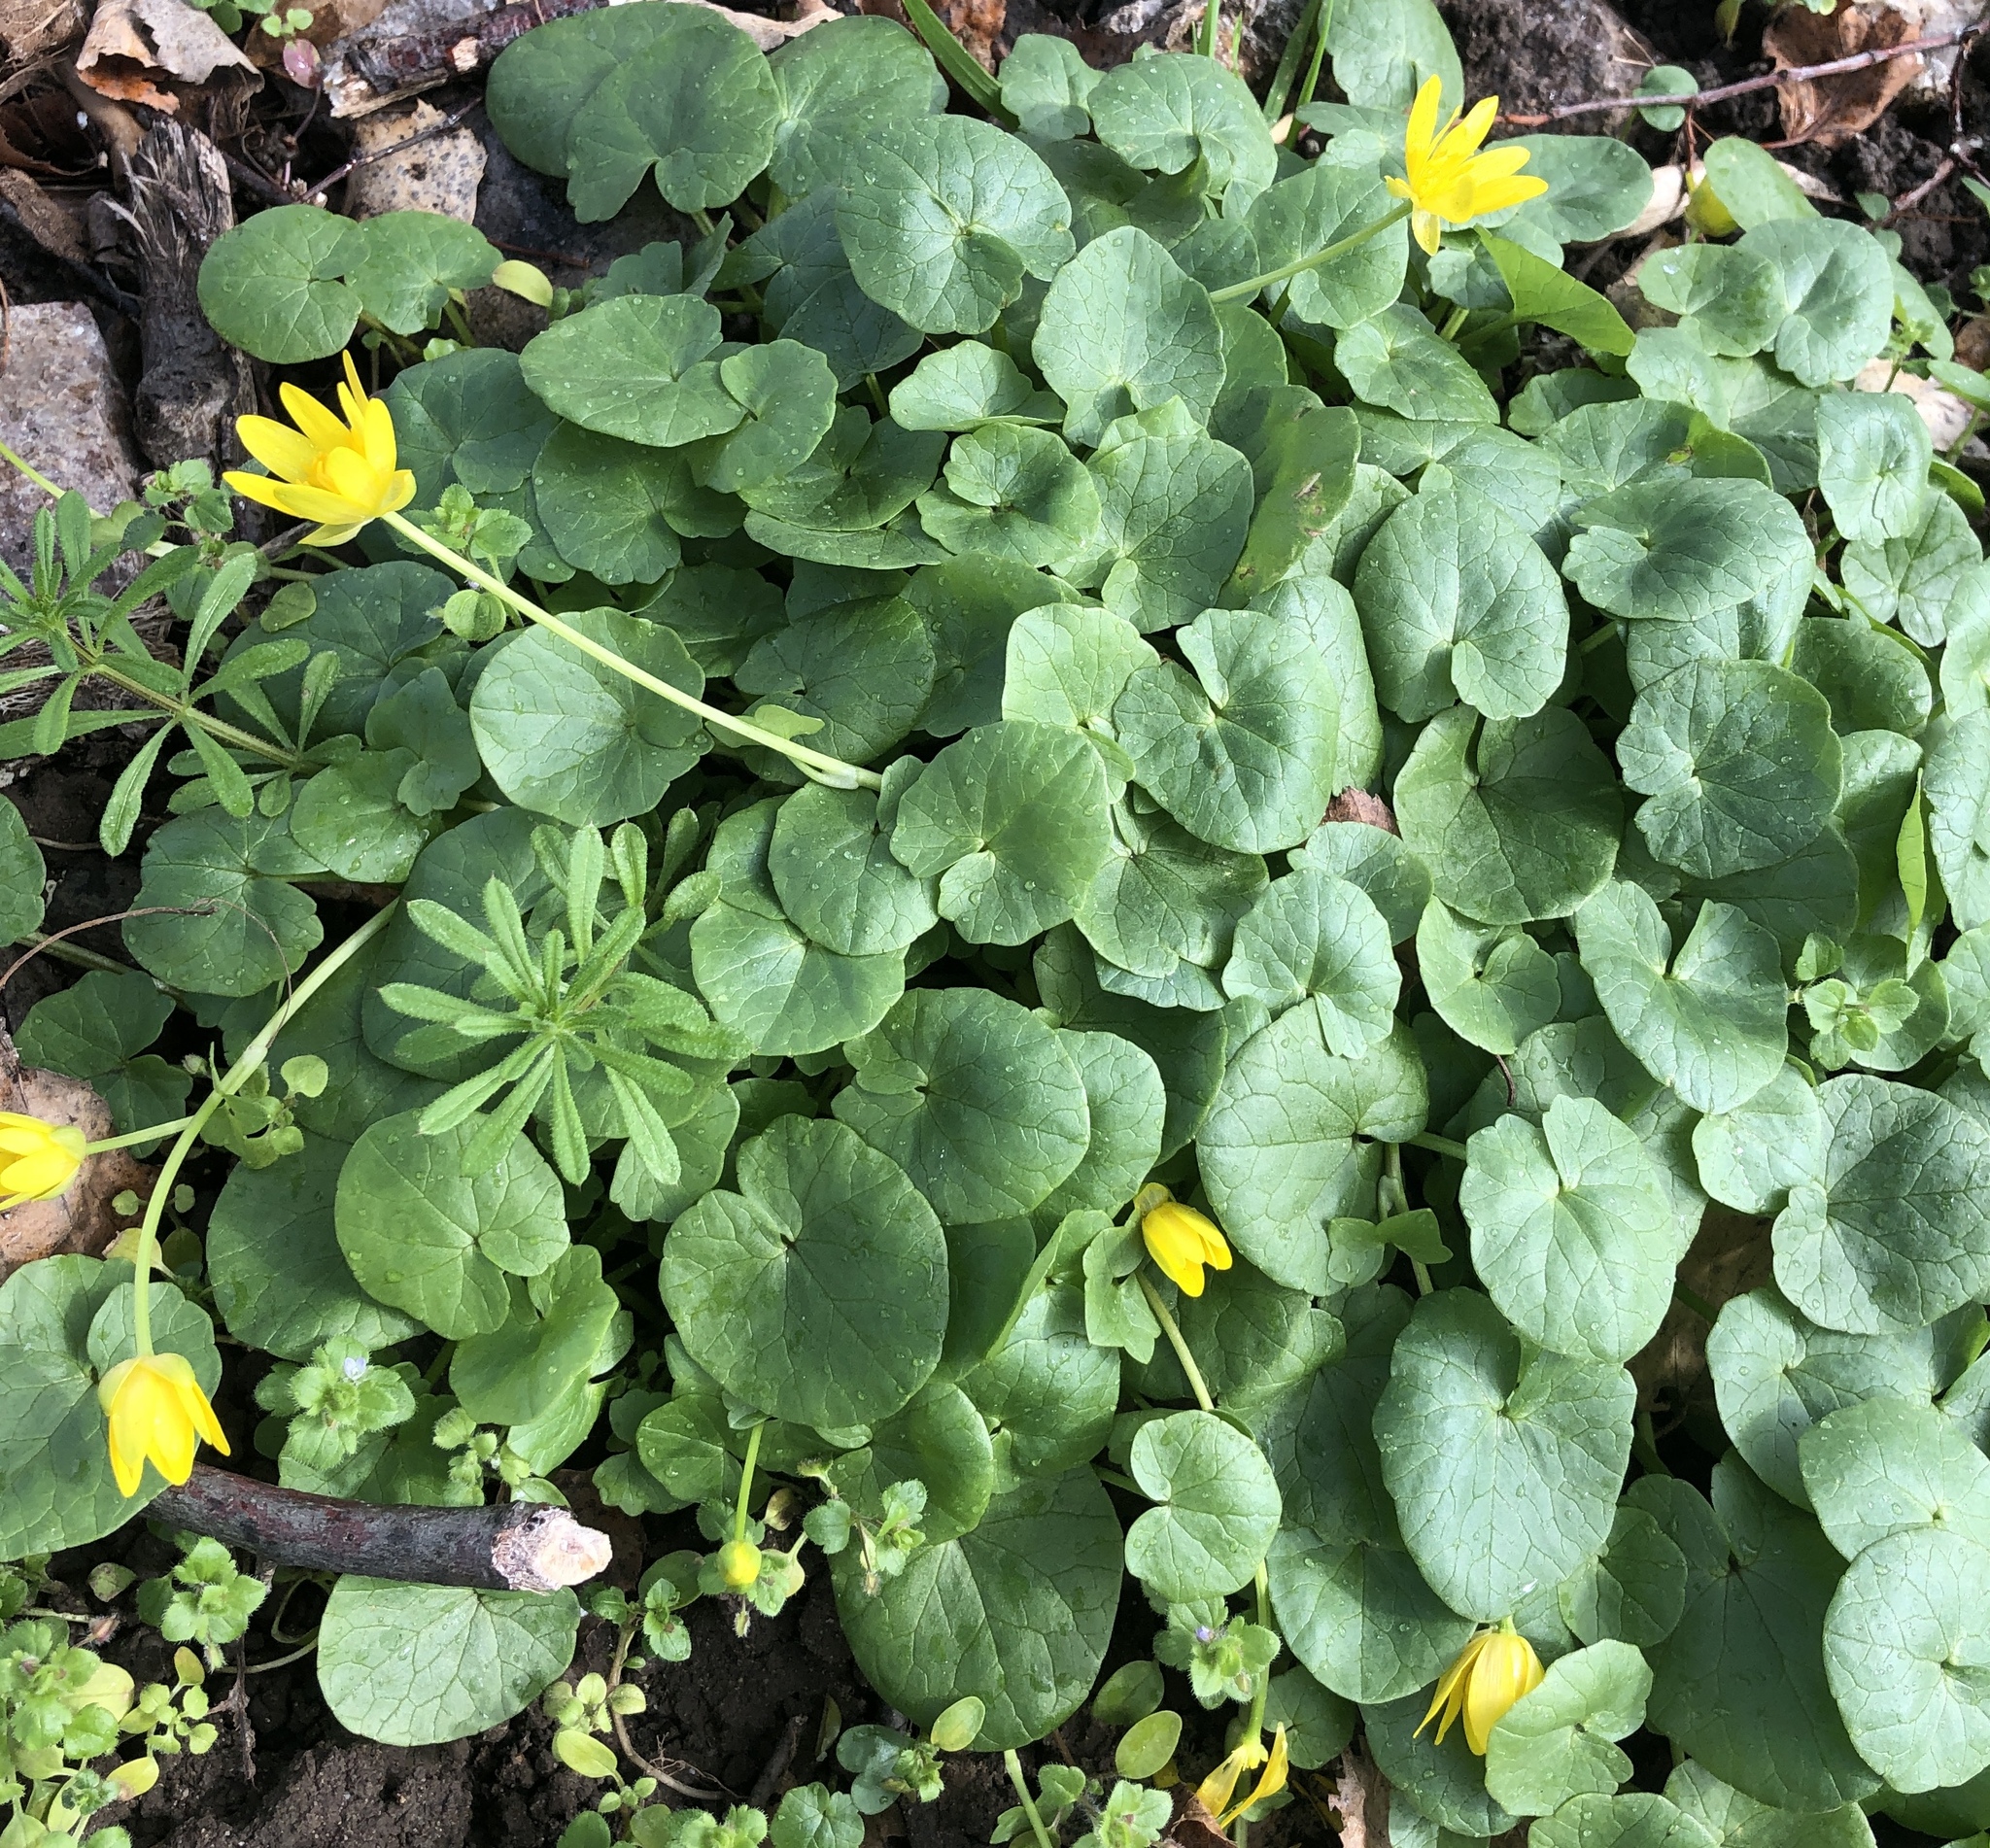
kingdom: Plantae
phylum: Tracheophyta
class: Magnoliopsida
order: Ranunculales
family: Ranunculaceae
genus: Ficaria
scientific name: Ficaria verna
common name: Lesser celandine
